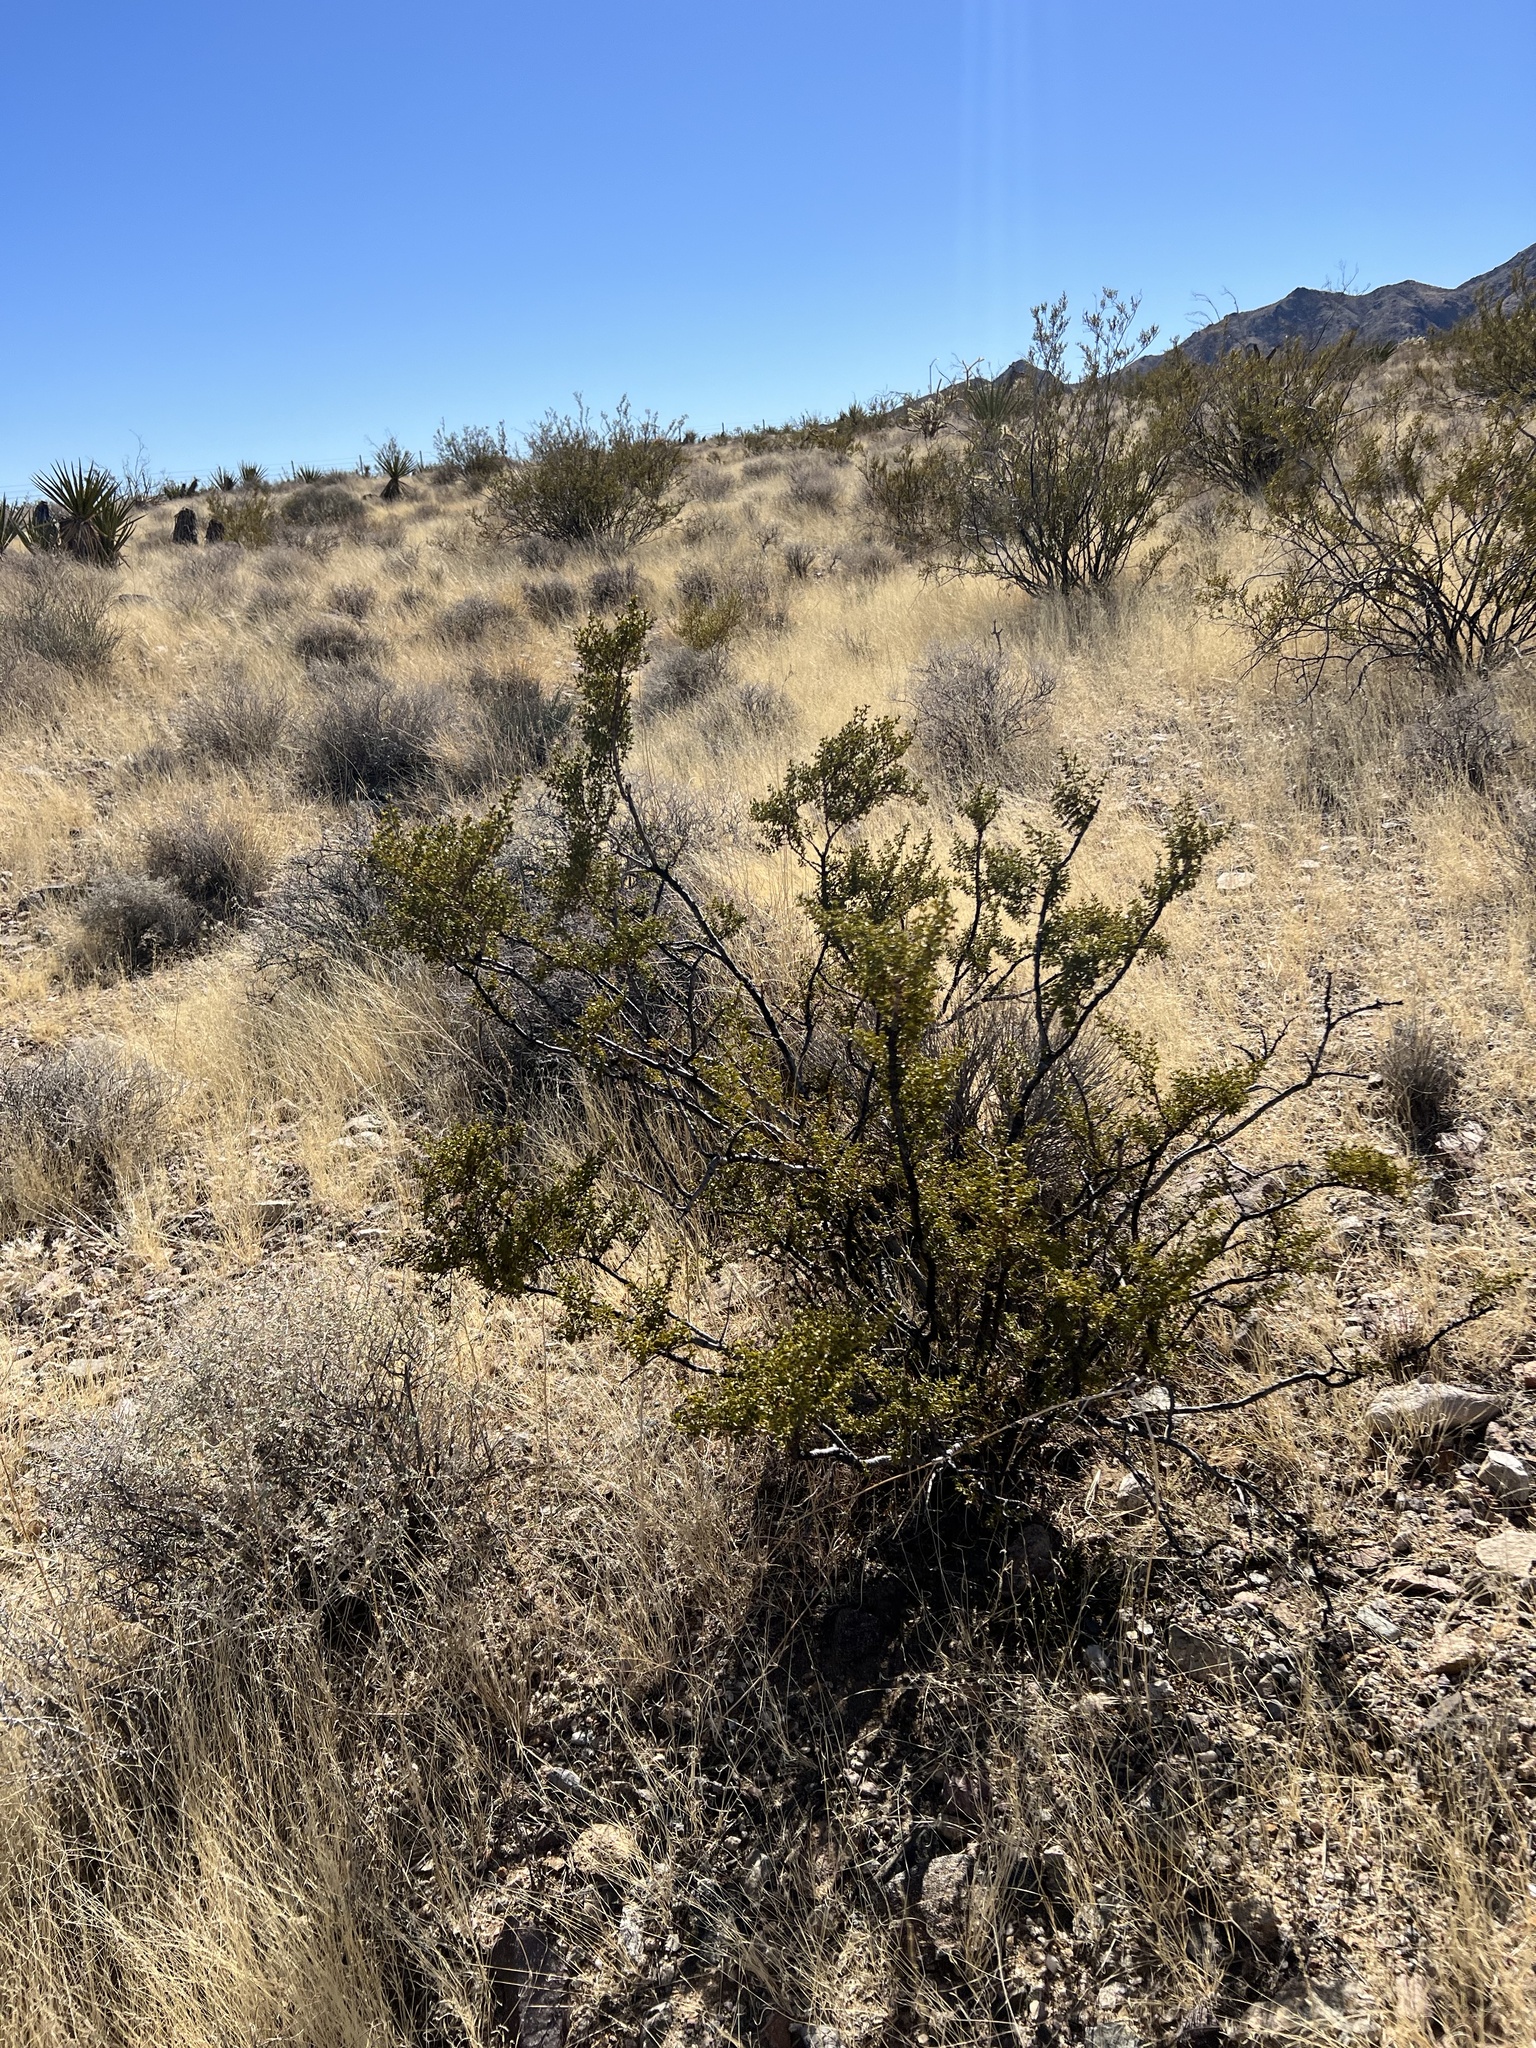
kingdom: Plantae
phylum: Tracheophyta
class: Magnoliopsida
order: Zygophyllales
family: Zygophyllaceae
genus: Larrea
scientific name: Larrea tridentata
